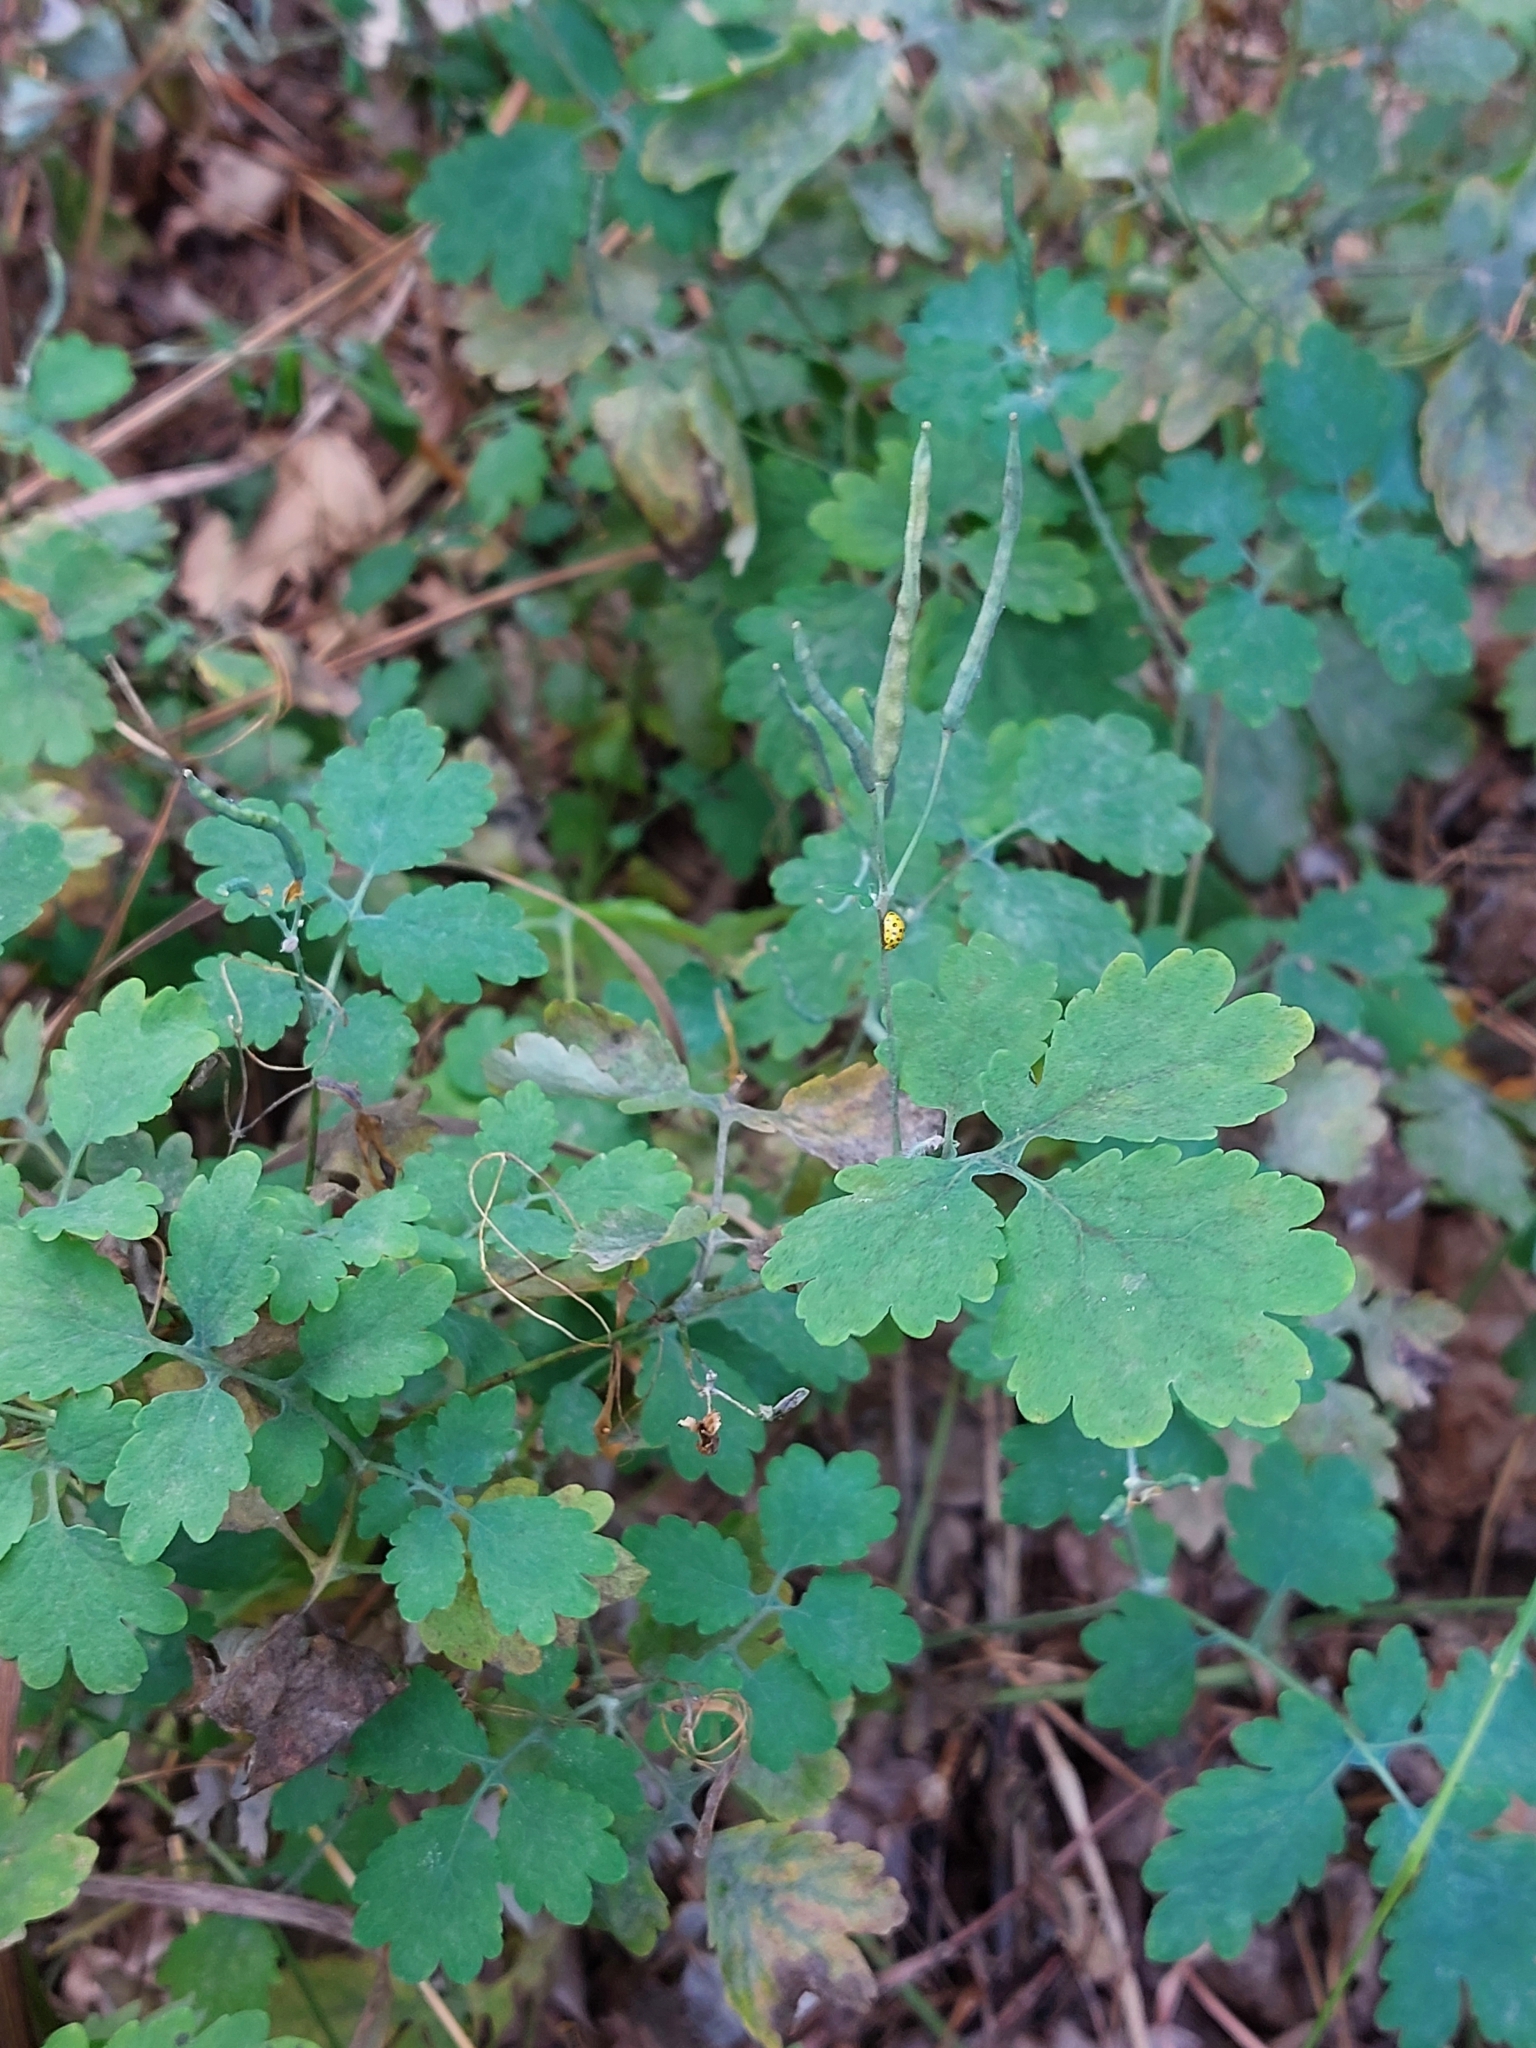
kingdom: Plantae
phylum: Tracheophyta
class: Magnoliopsida
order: Ranunculales
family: Papaveraceae
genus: Chelidonium
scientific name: Chelidonium majus
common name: Greater celandine
